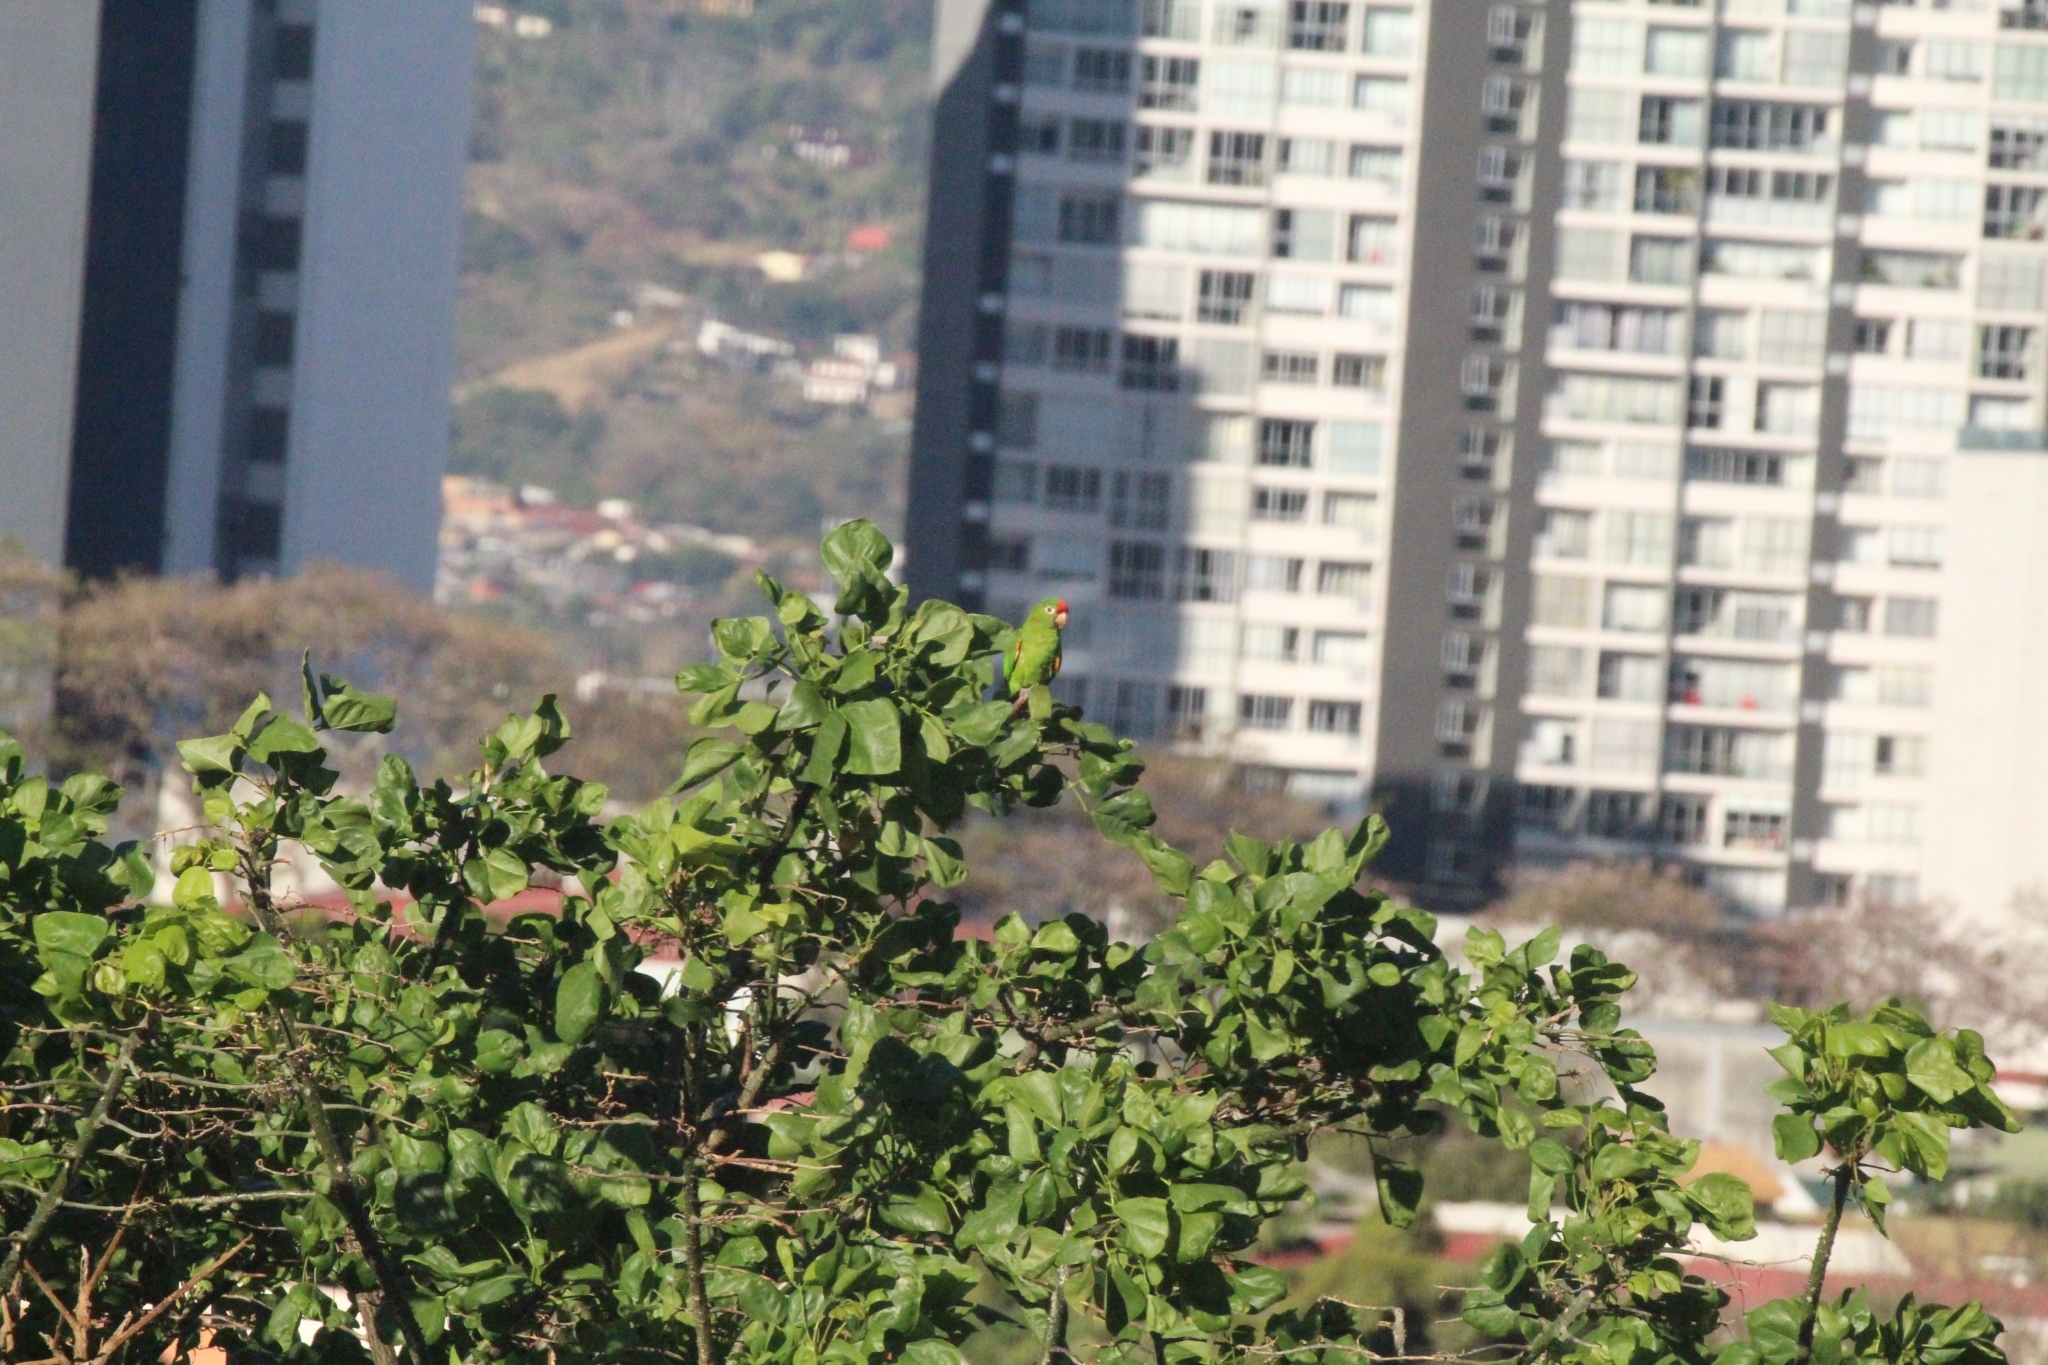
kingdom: Animalia
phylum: Chordata
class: Aves
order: Psittaciformes
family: Psittacidae
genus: Aratinga
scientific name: Aratinga finschi
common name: Crimson-fronted parakeet
